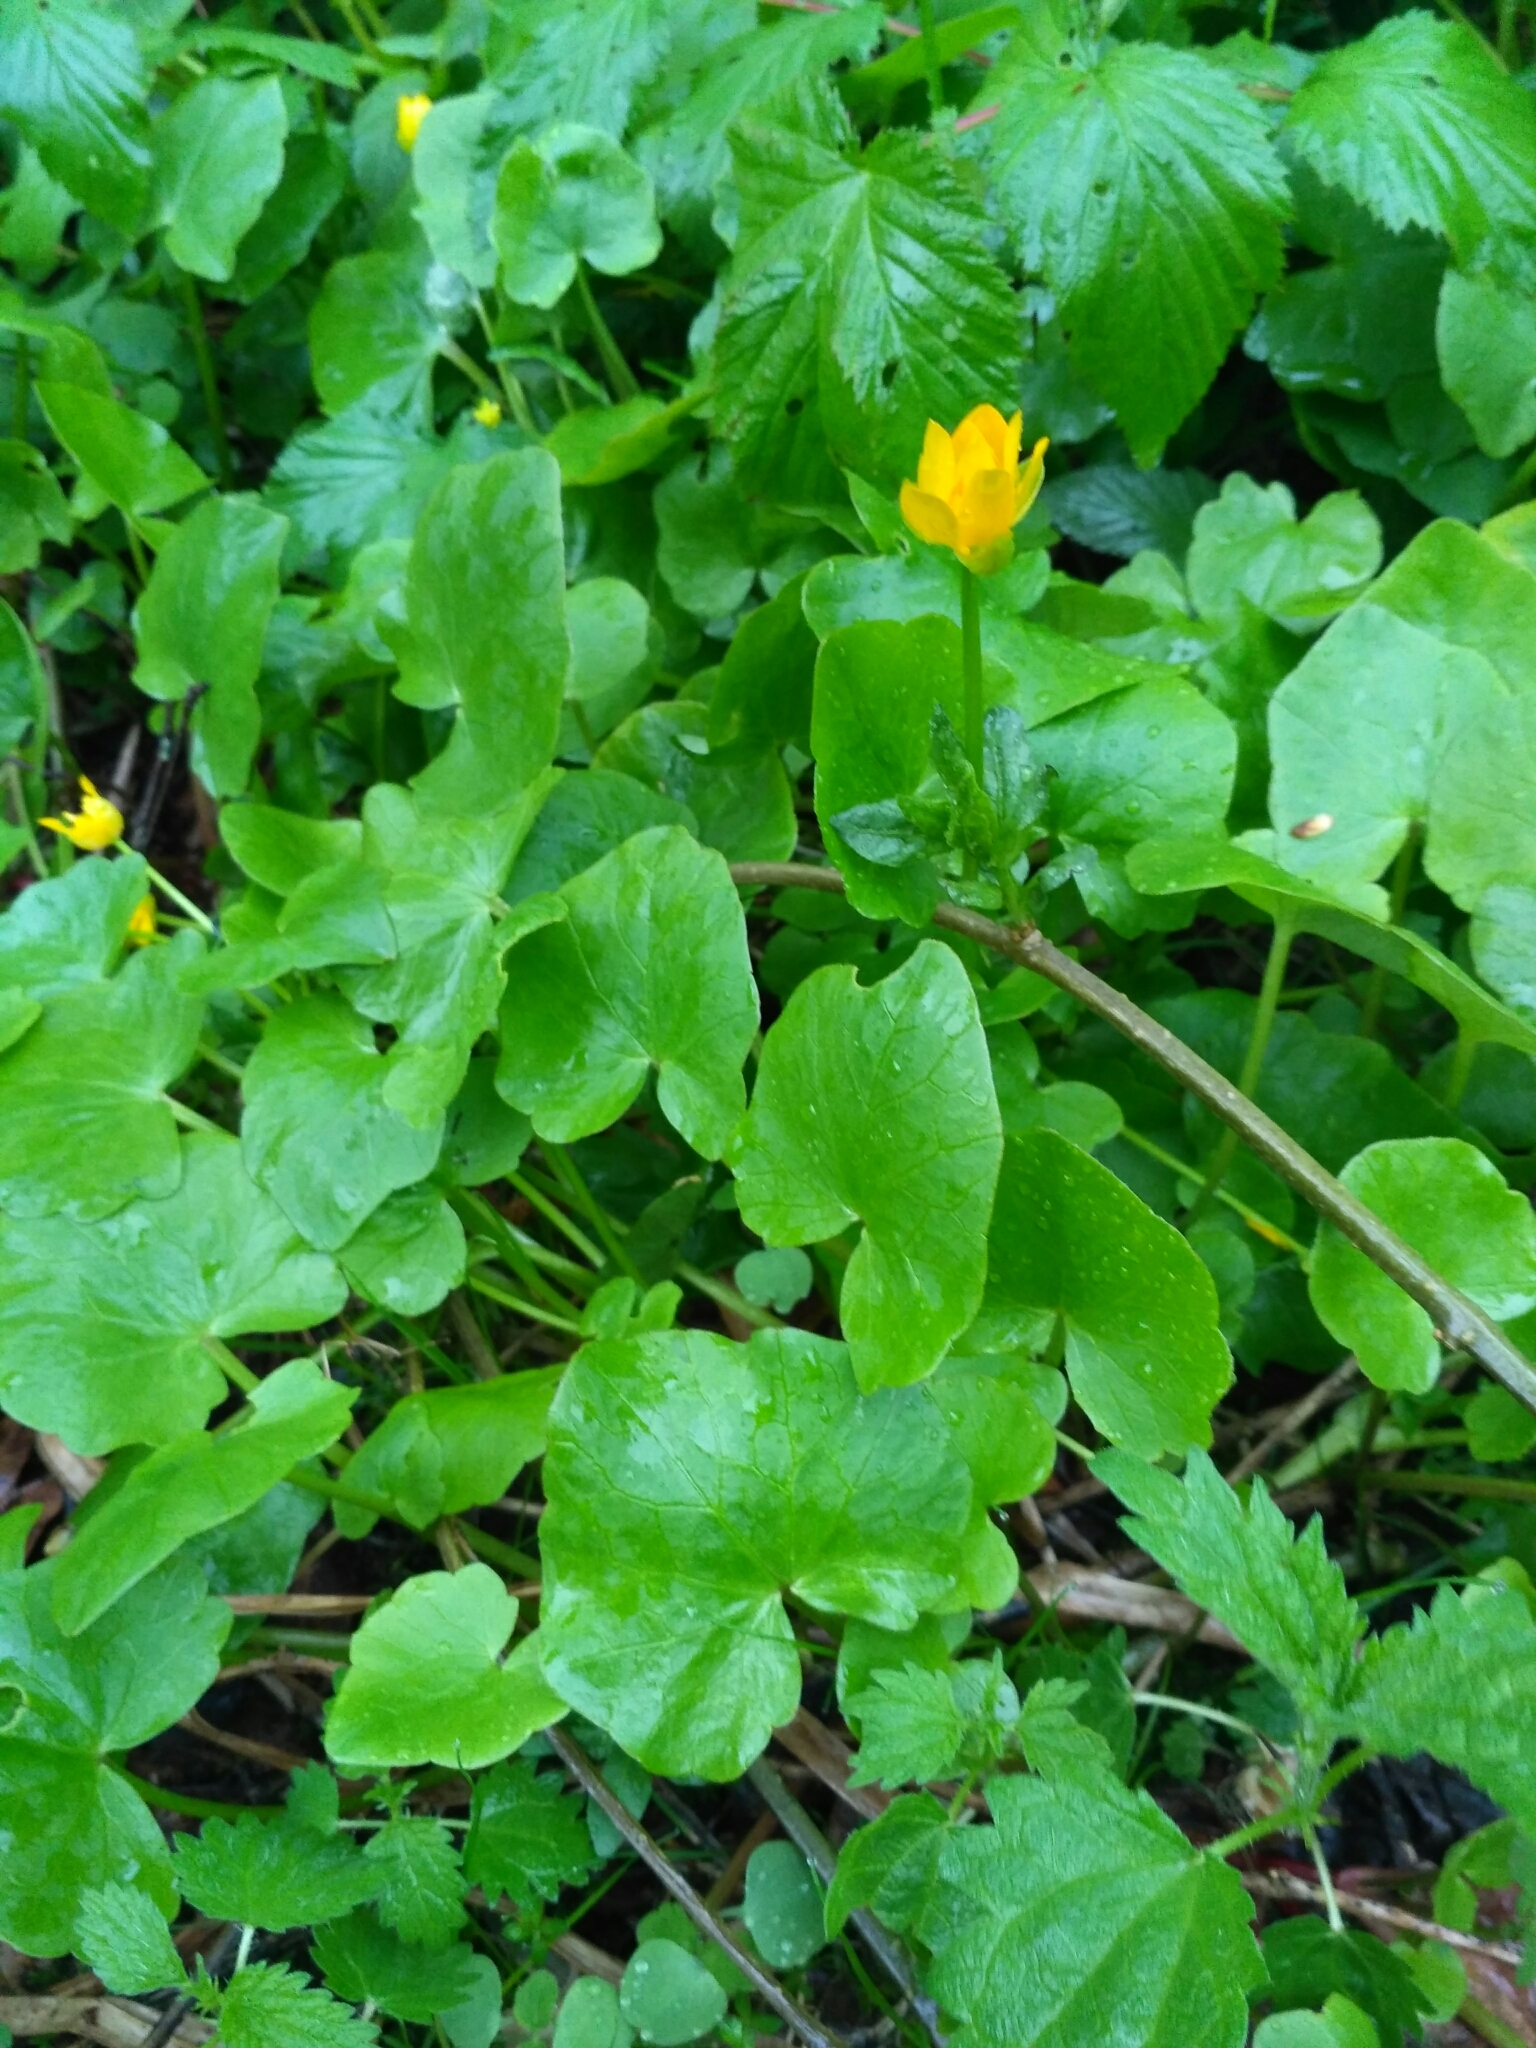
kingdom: Plantae
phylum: Tracheophyta
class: Magnoliopsida
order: Ranunculales
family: Ranunculaceae
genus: Ficaria
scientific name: Ficaria verna
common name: Lesser celandine
